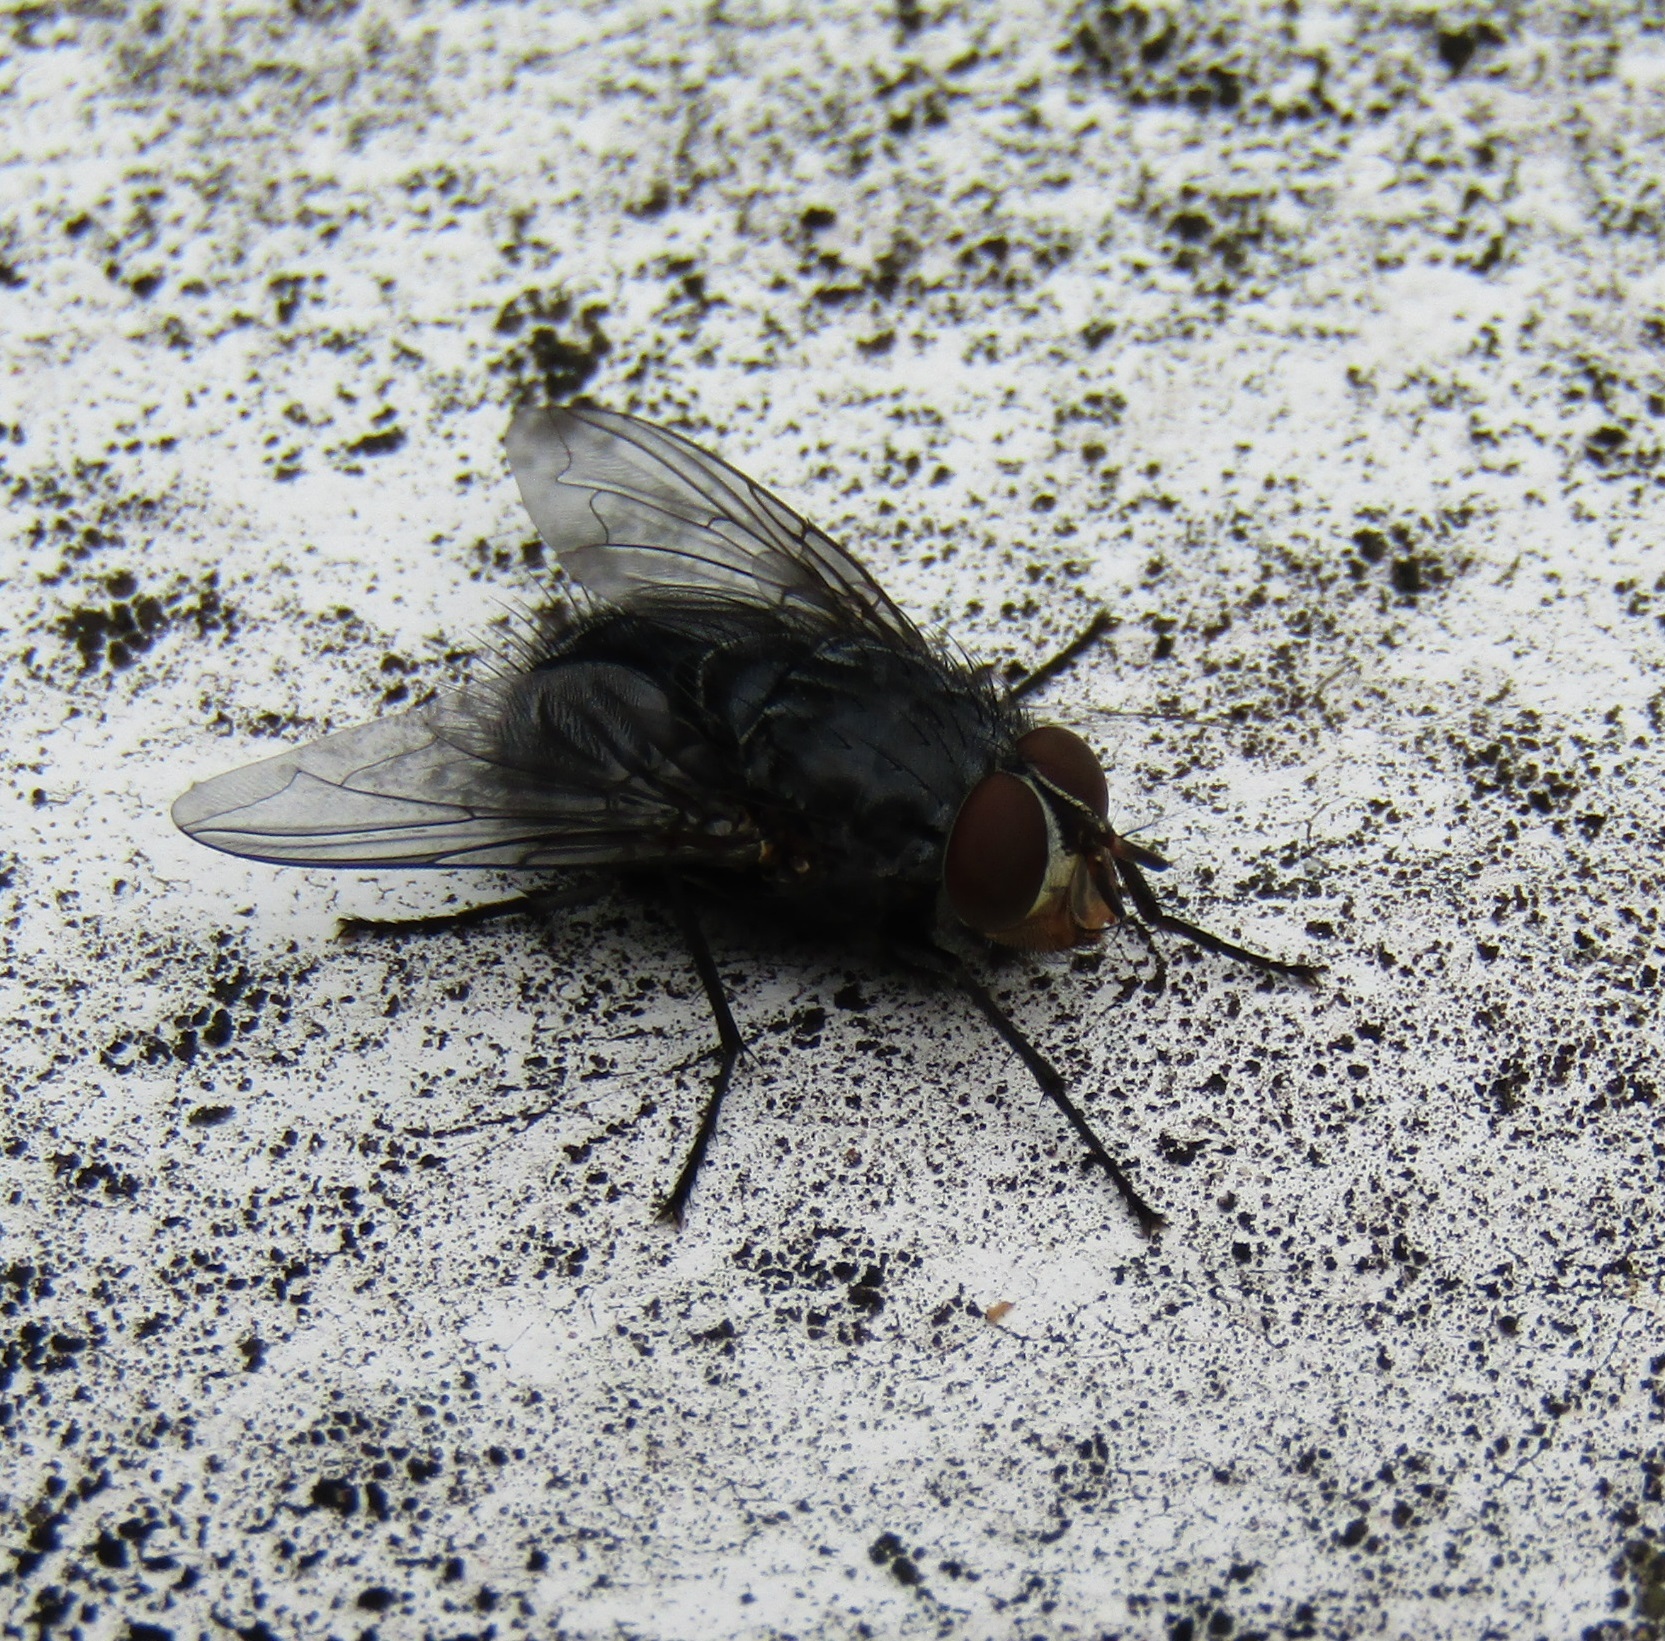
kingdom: Animalia
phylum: Arthropoda
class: Insecta
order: Diptera
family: Calliphoridae
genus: Calliphora
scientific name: Calliphora vicina
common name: Common blow flie
